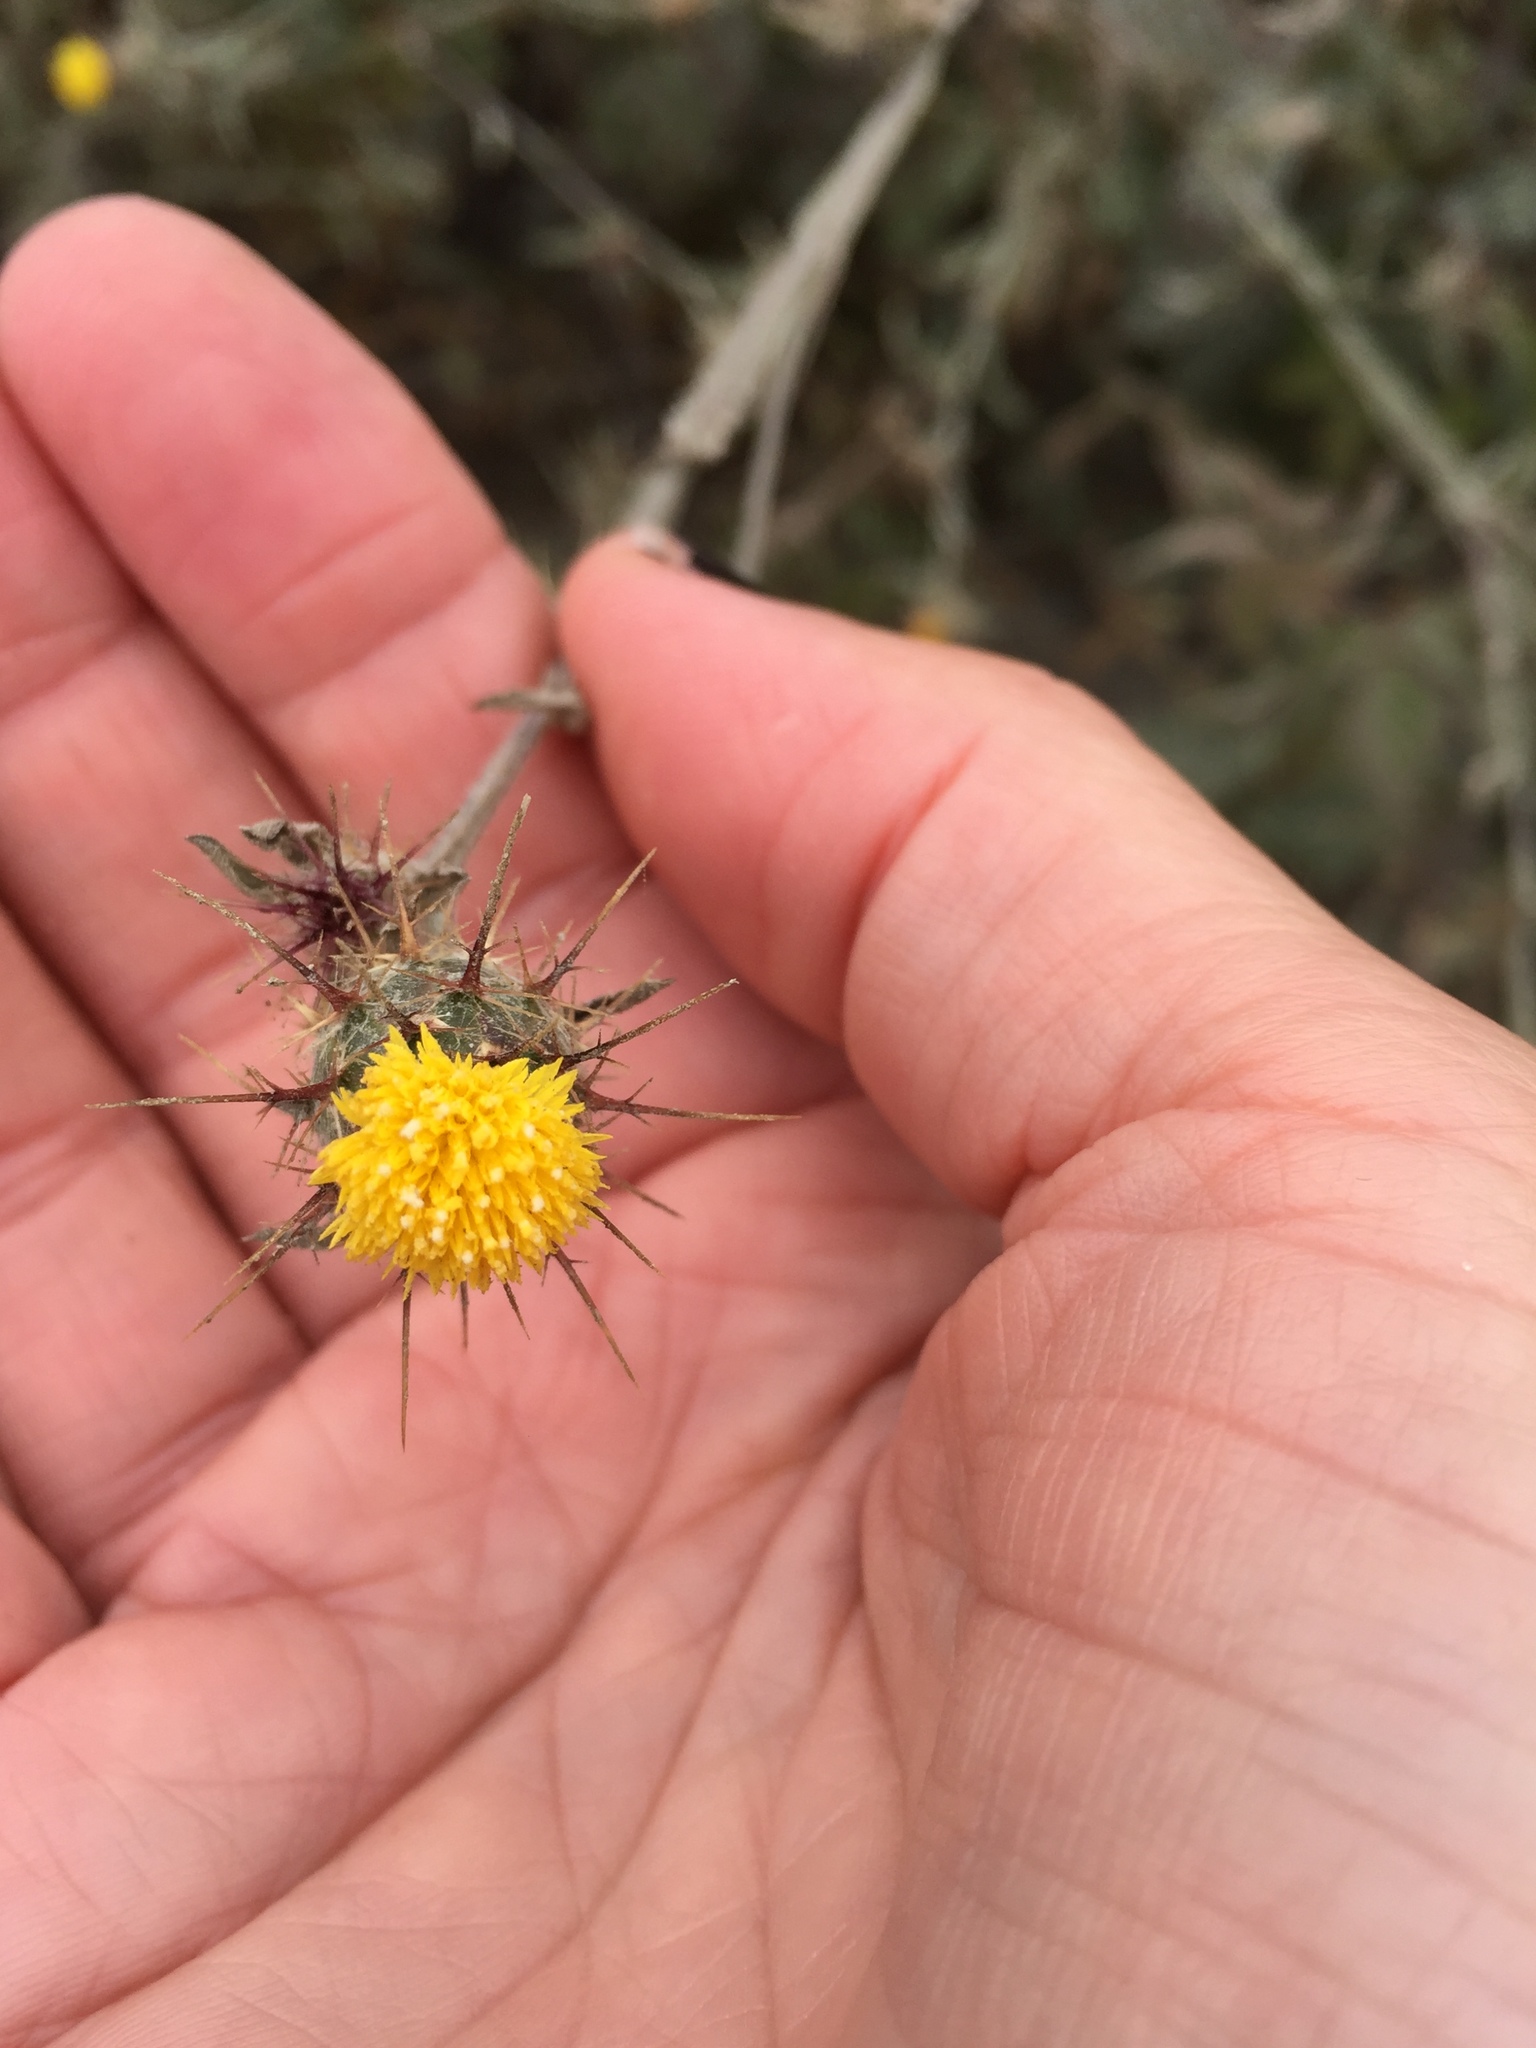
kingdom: Plantae
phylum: Tracheophyta
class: Magnoliopsida
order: Asterales
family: Asteraceae
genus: Centaurea
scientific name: Centaurea melitensis
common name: Maltese star-thistle
